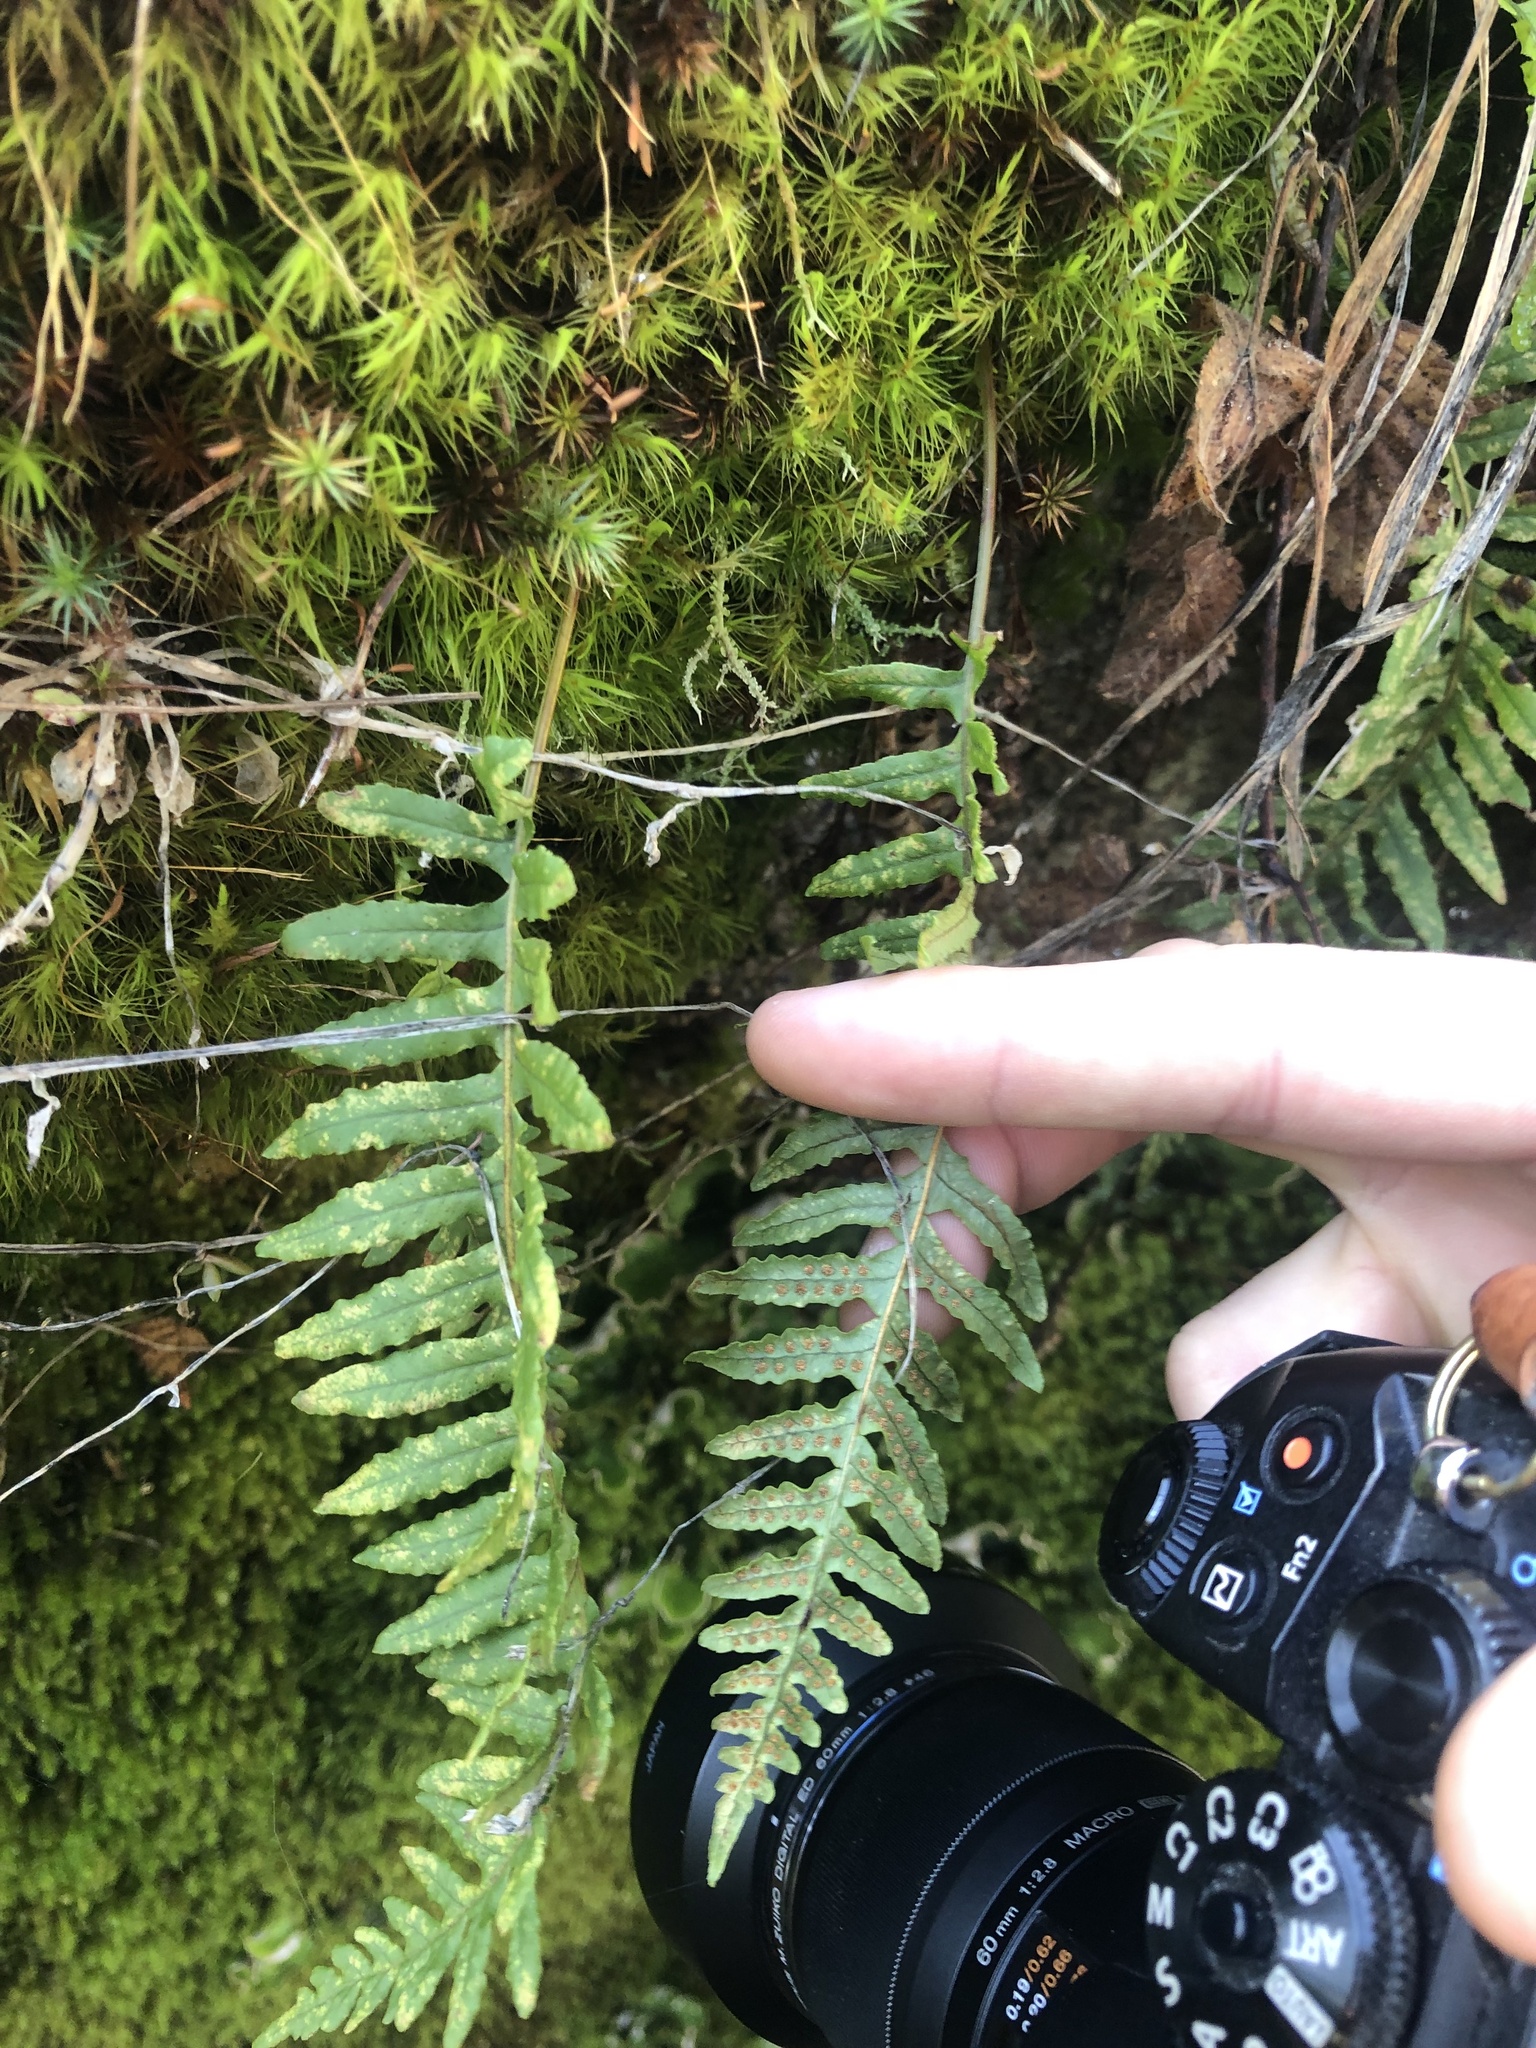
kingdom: Plantae
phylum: Tracheophyta
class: Polypodiopsida
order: Polypodiales
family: Polypodiaceae
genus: Polypodium
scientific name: Polypodium glycyrrhiza
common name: Licorice fern
